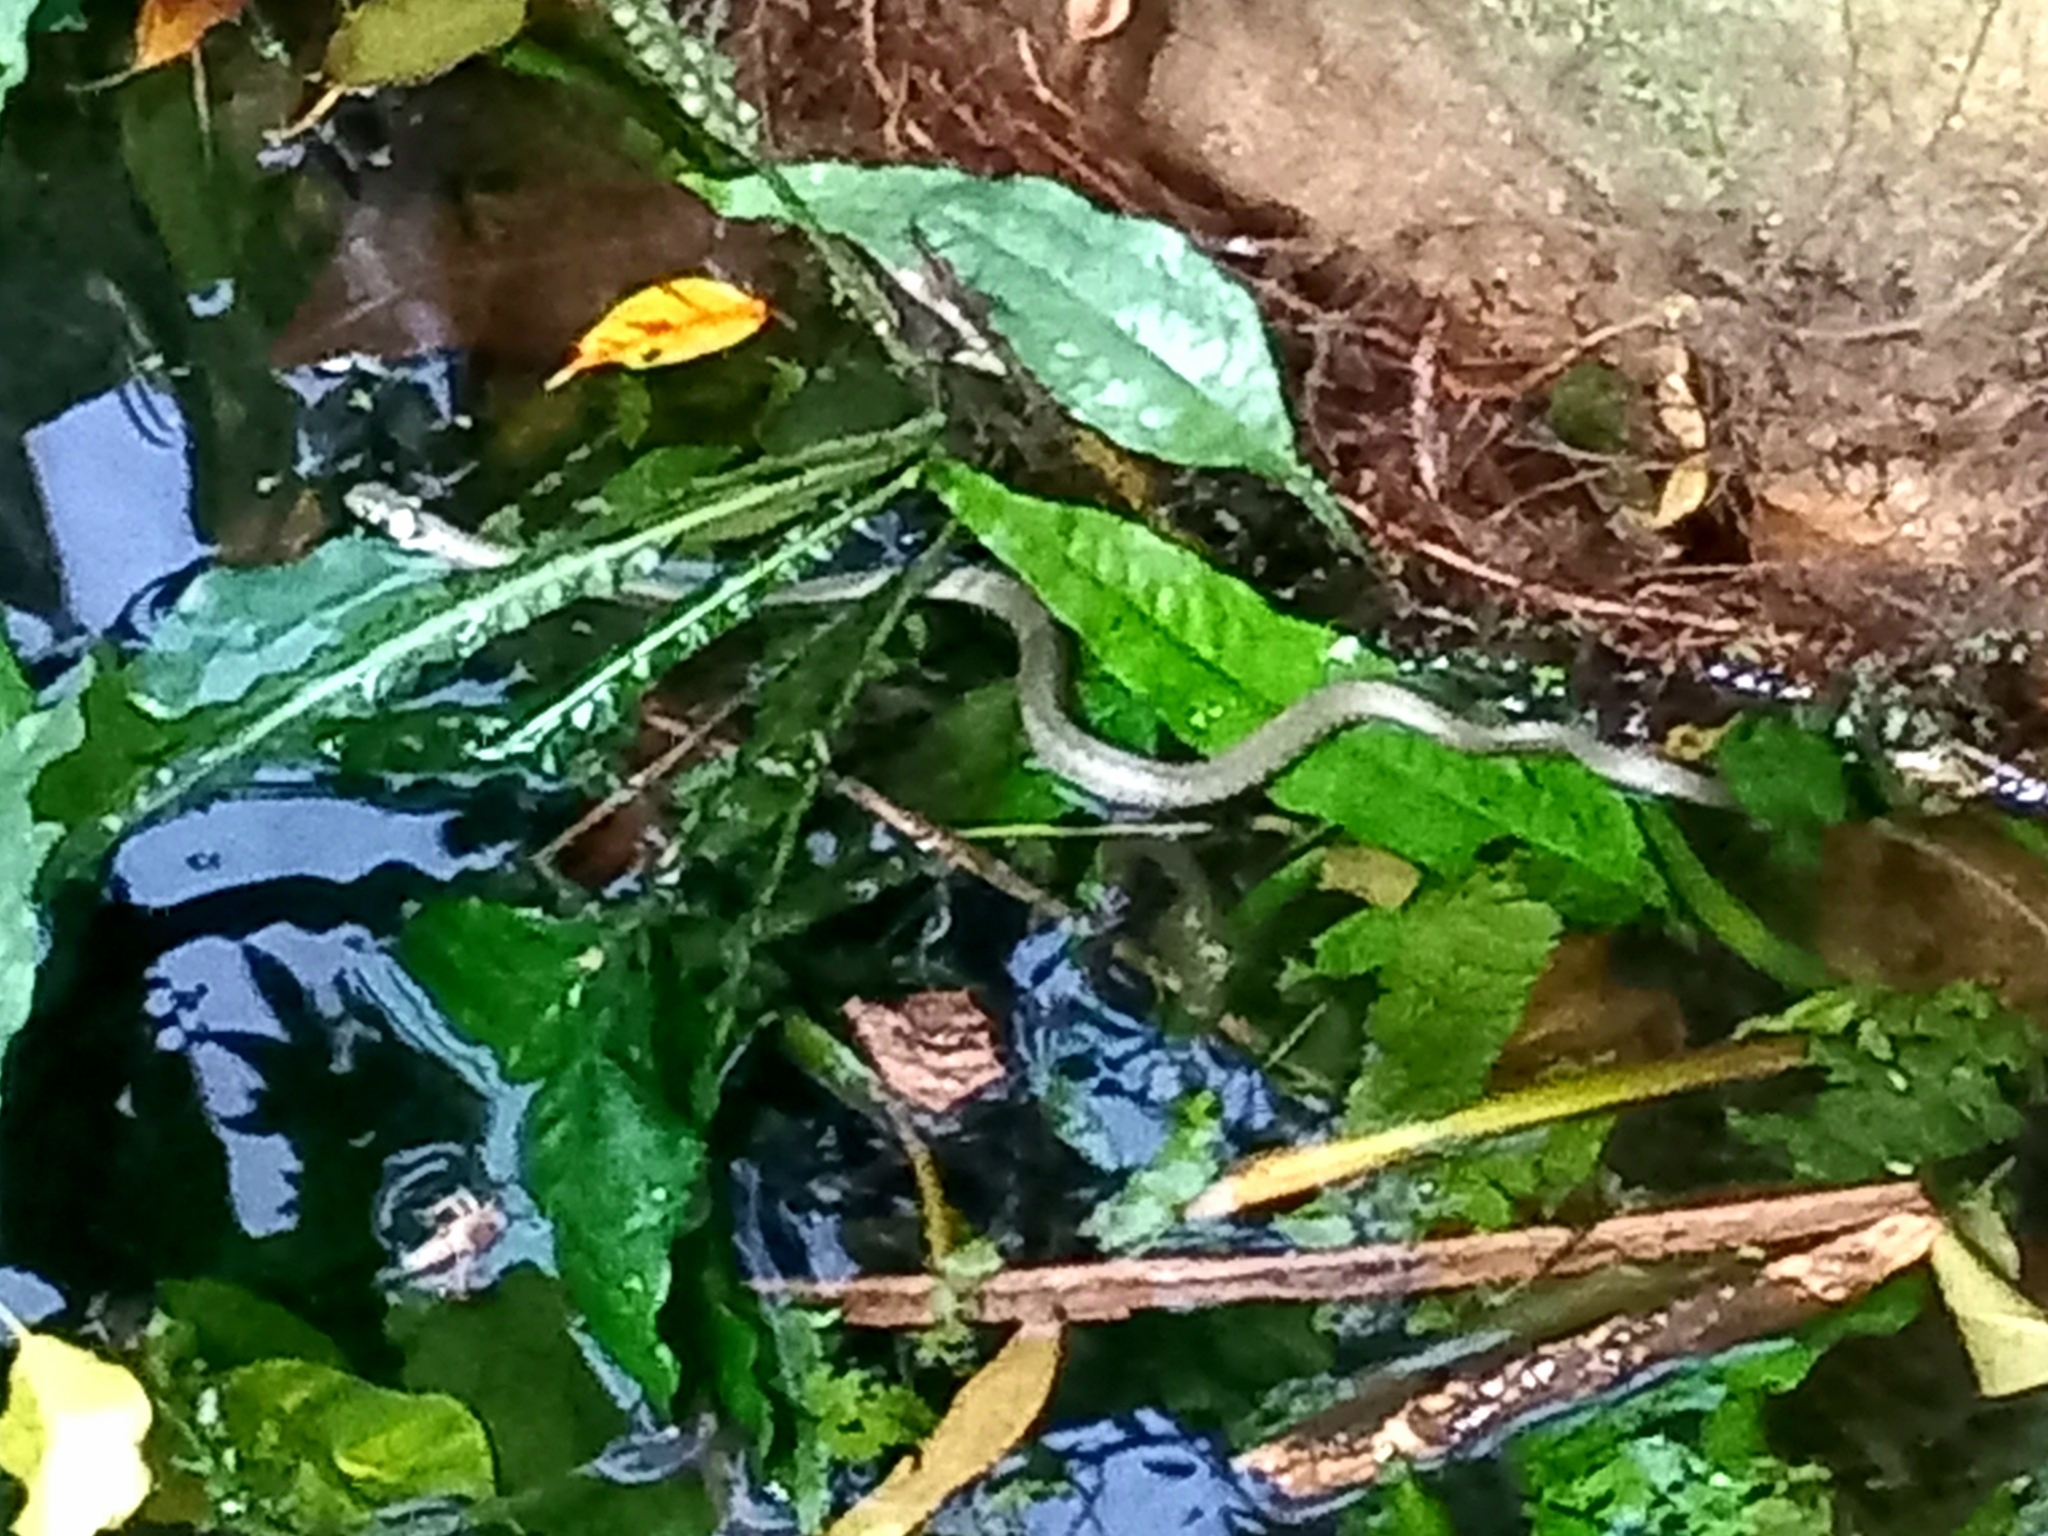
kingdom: Animalia
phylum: Chordata
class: Squamata
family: Colubridae
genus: Natrix
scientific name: Natrix natrix
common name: Grass snake
